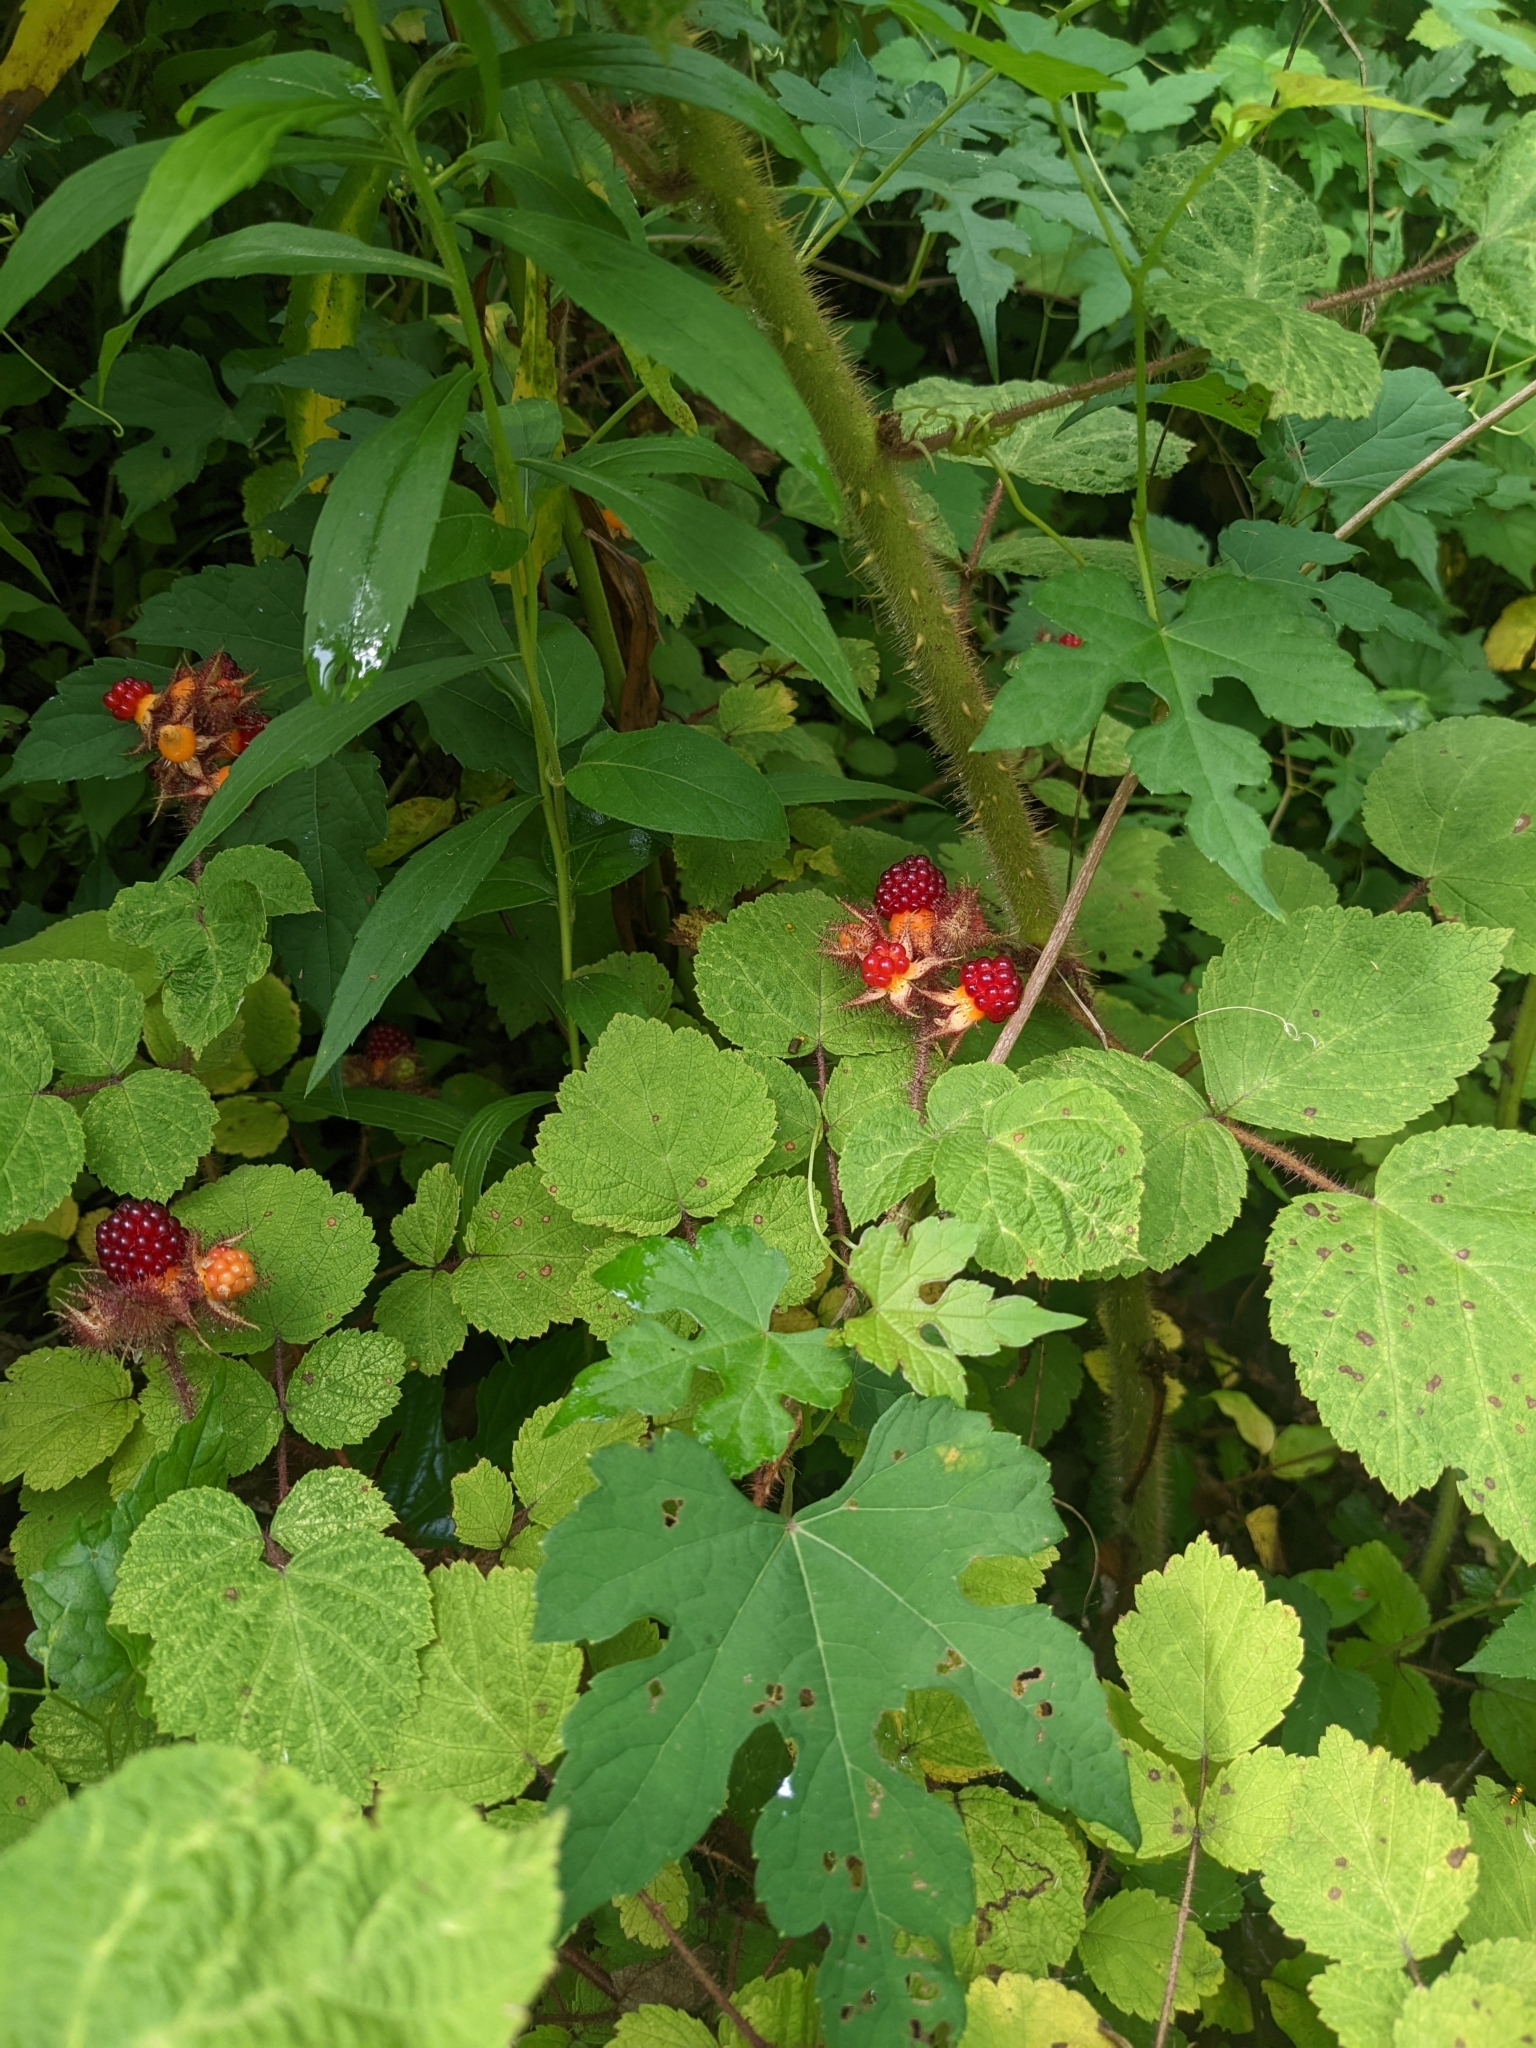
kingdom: Plantae
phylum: Tracheophyta
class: Magnoliopsida
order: Rosales
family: Rosaceae
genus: Rubus
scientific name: Rubus phoenicolasius
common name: Japanese wineberry
